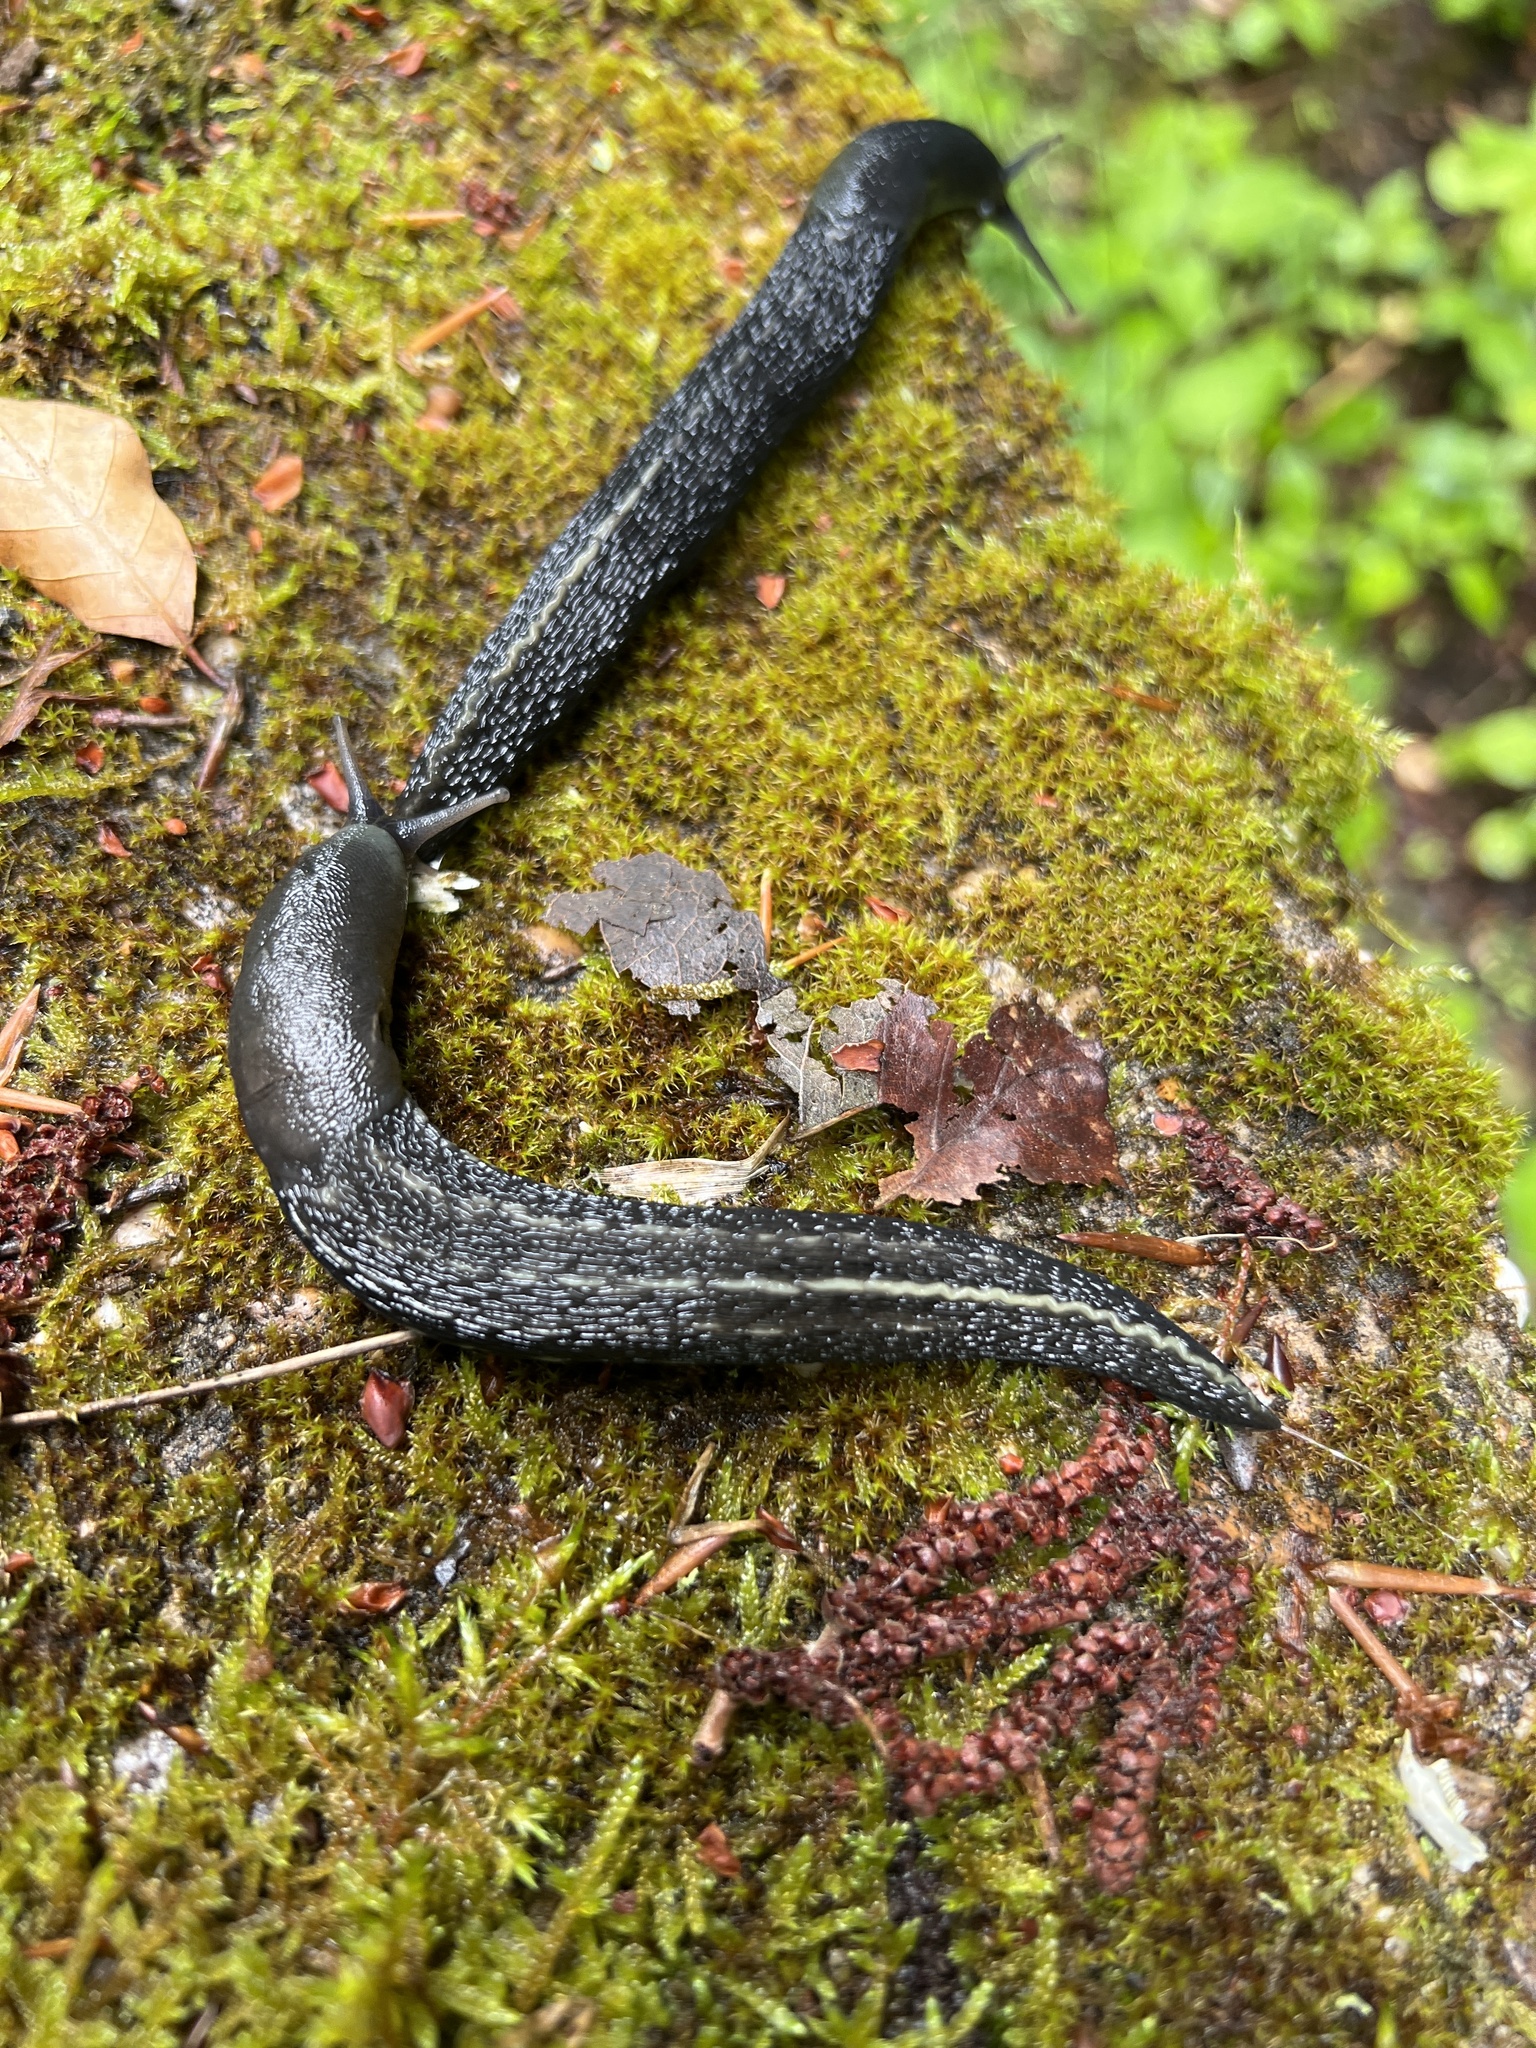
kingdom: Animalia
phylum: Mollusca
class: Gastropoda
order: Stylommatophora
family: Limacidae
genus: Limax
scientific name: Limax cinereoniger
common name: Ash-black slug
